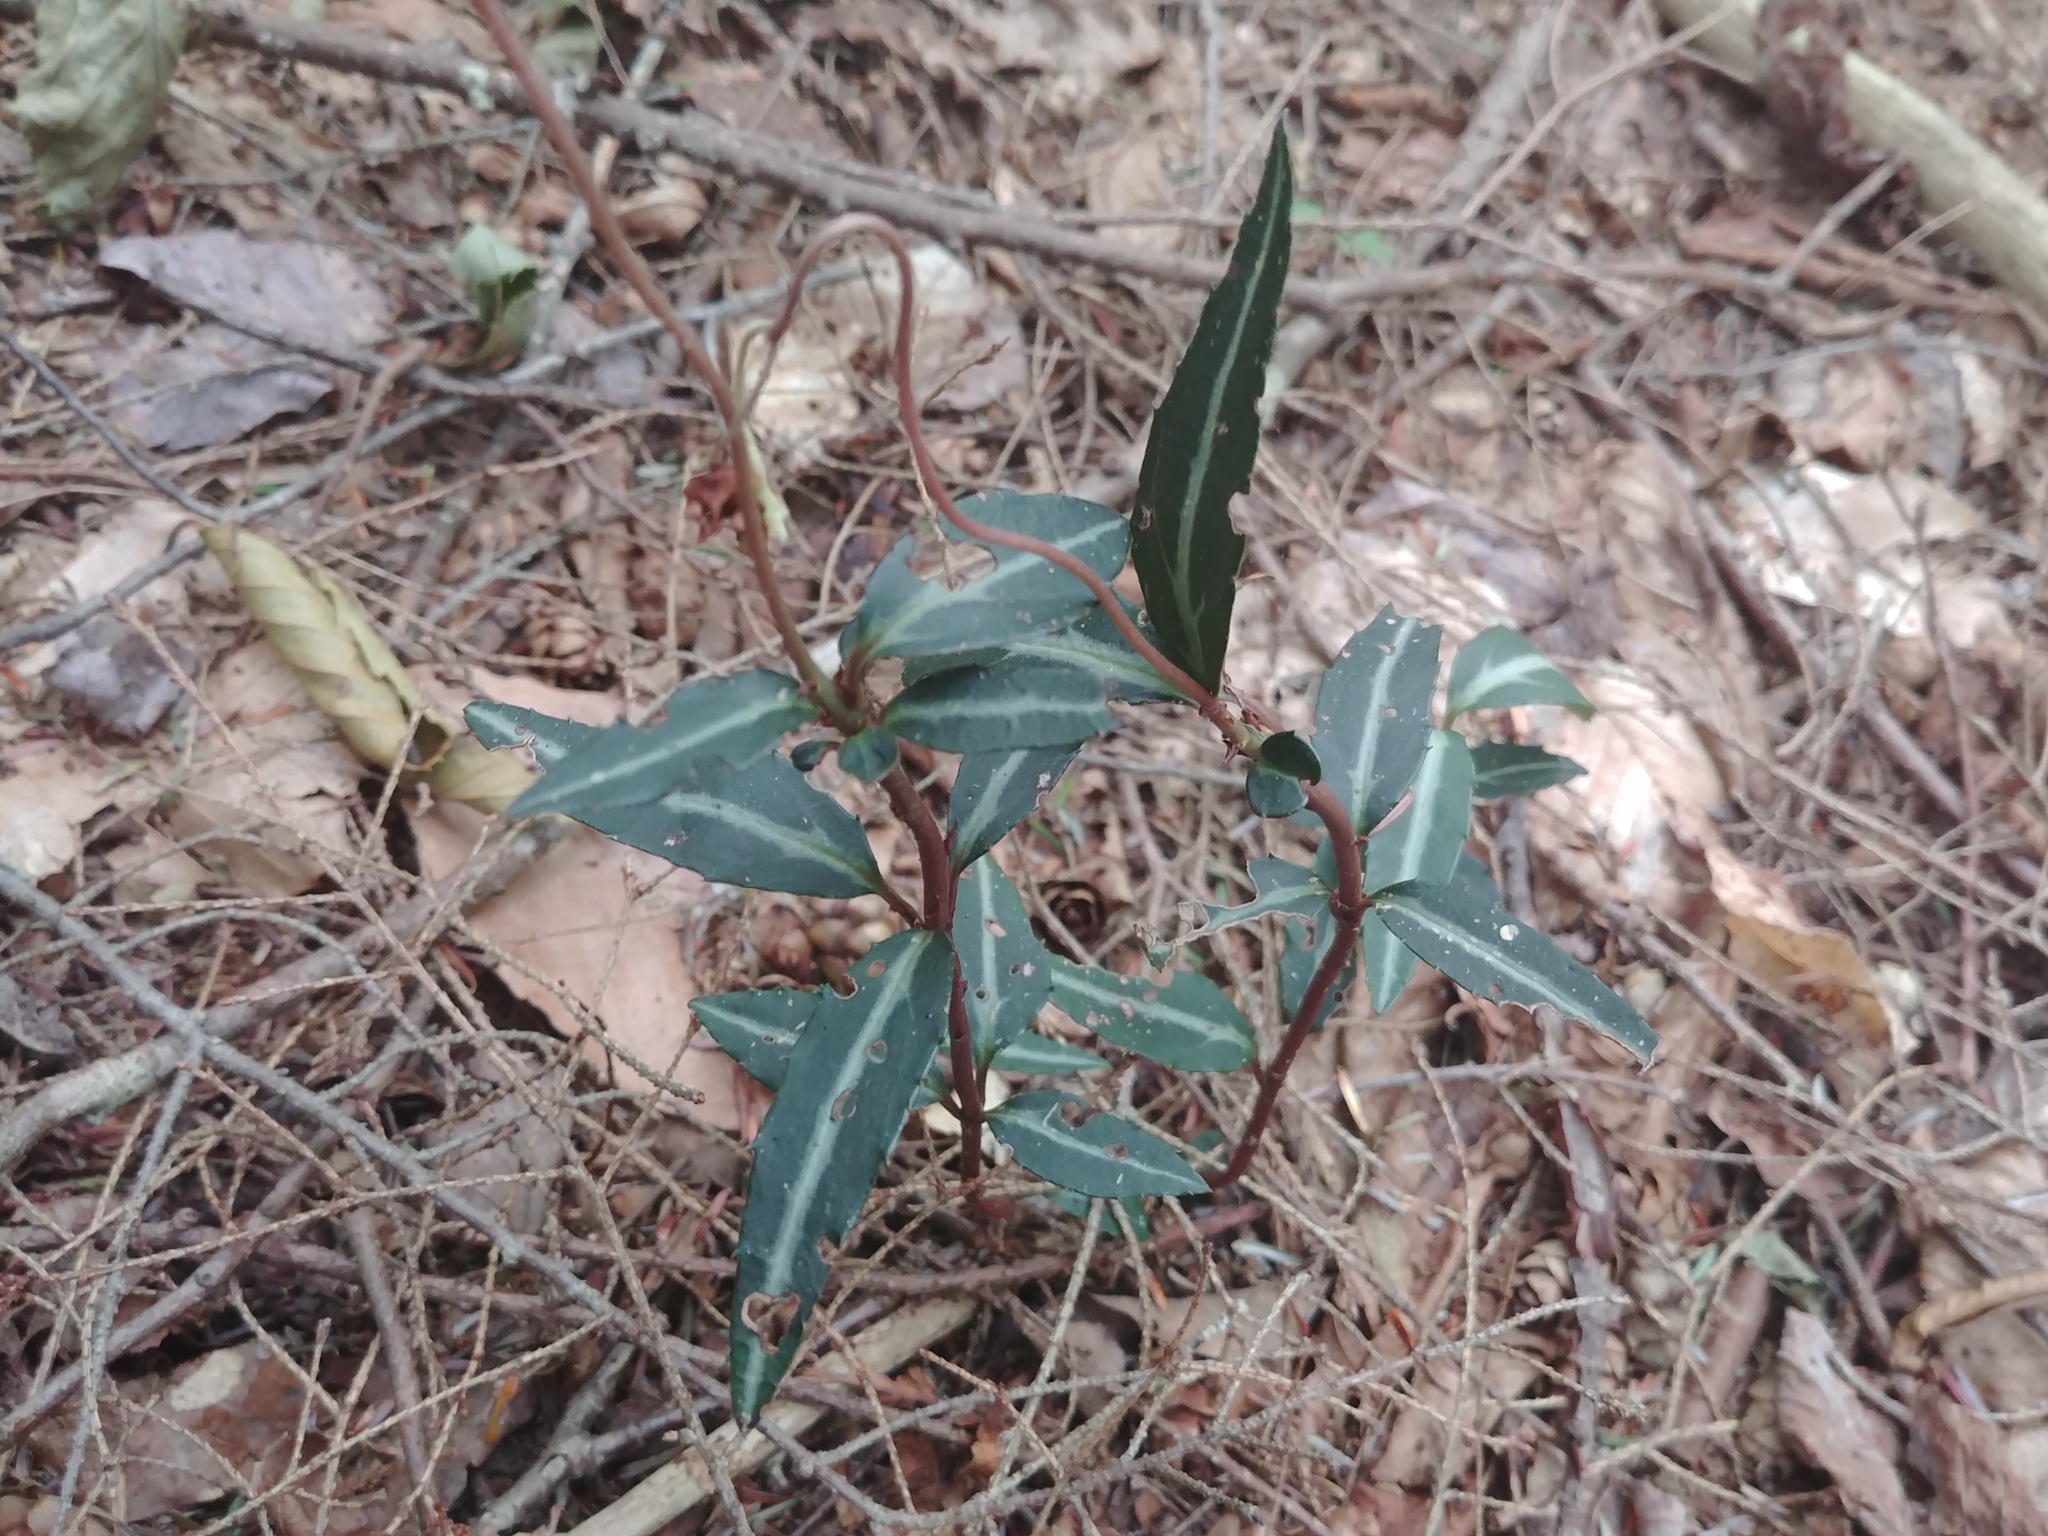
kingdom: Plantae
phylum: Tracheophyta
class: Magnoliopsida
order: Ericales
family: Ericaceae
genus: Chimaphila
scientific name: Chimaphila maculata
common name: Spotted pipsissewa
